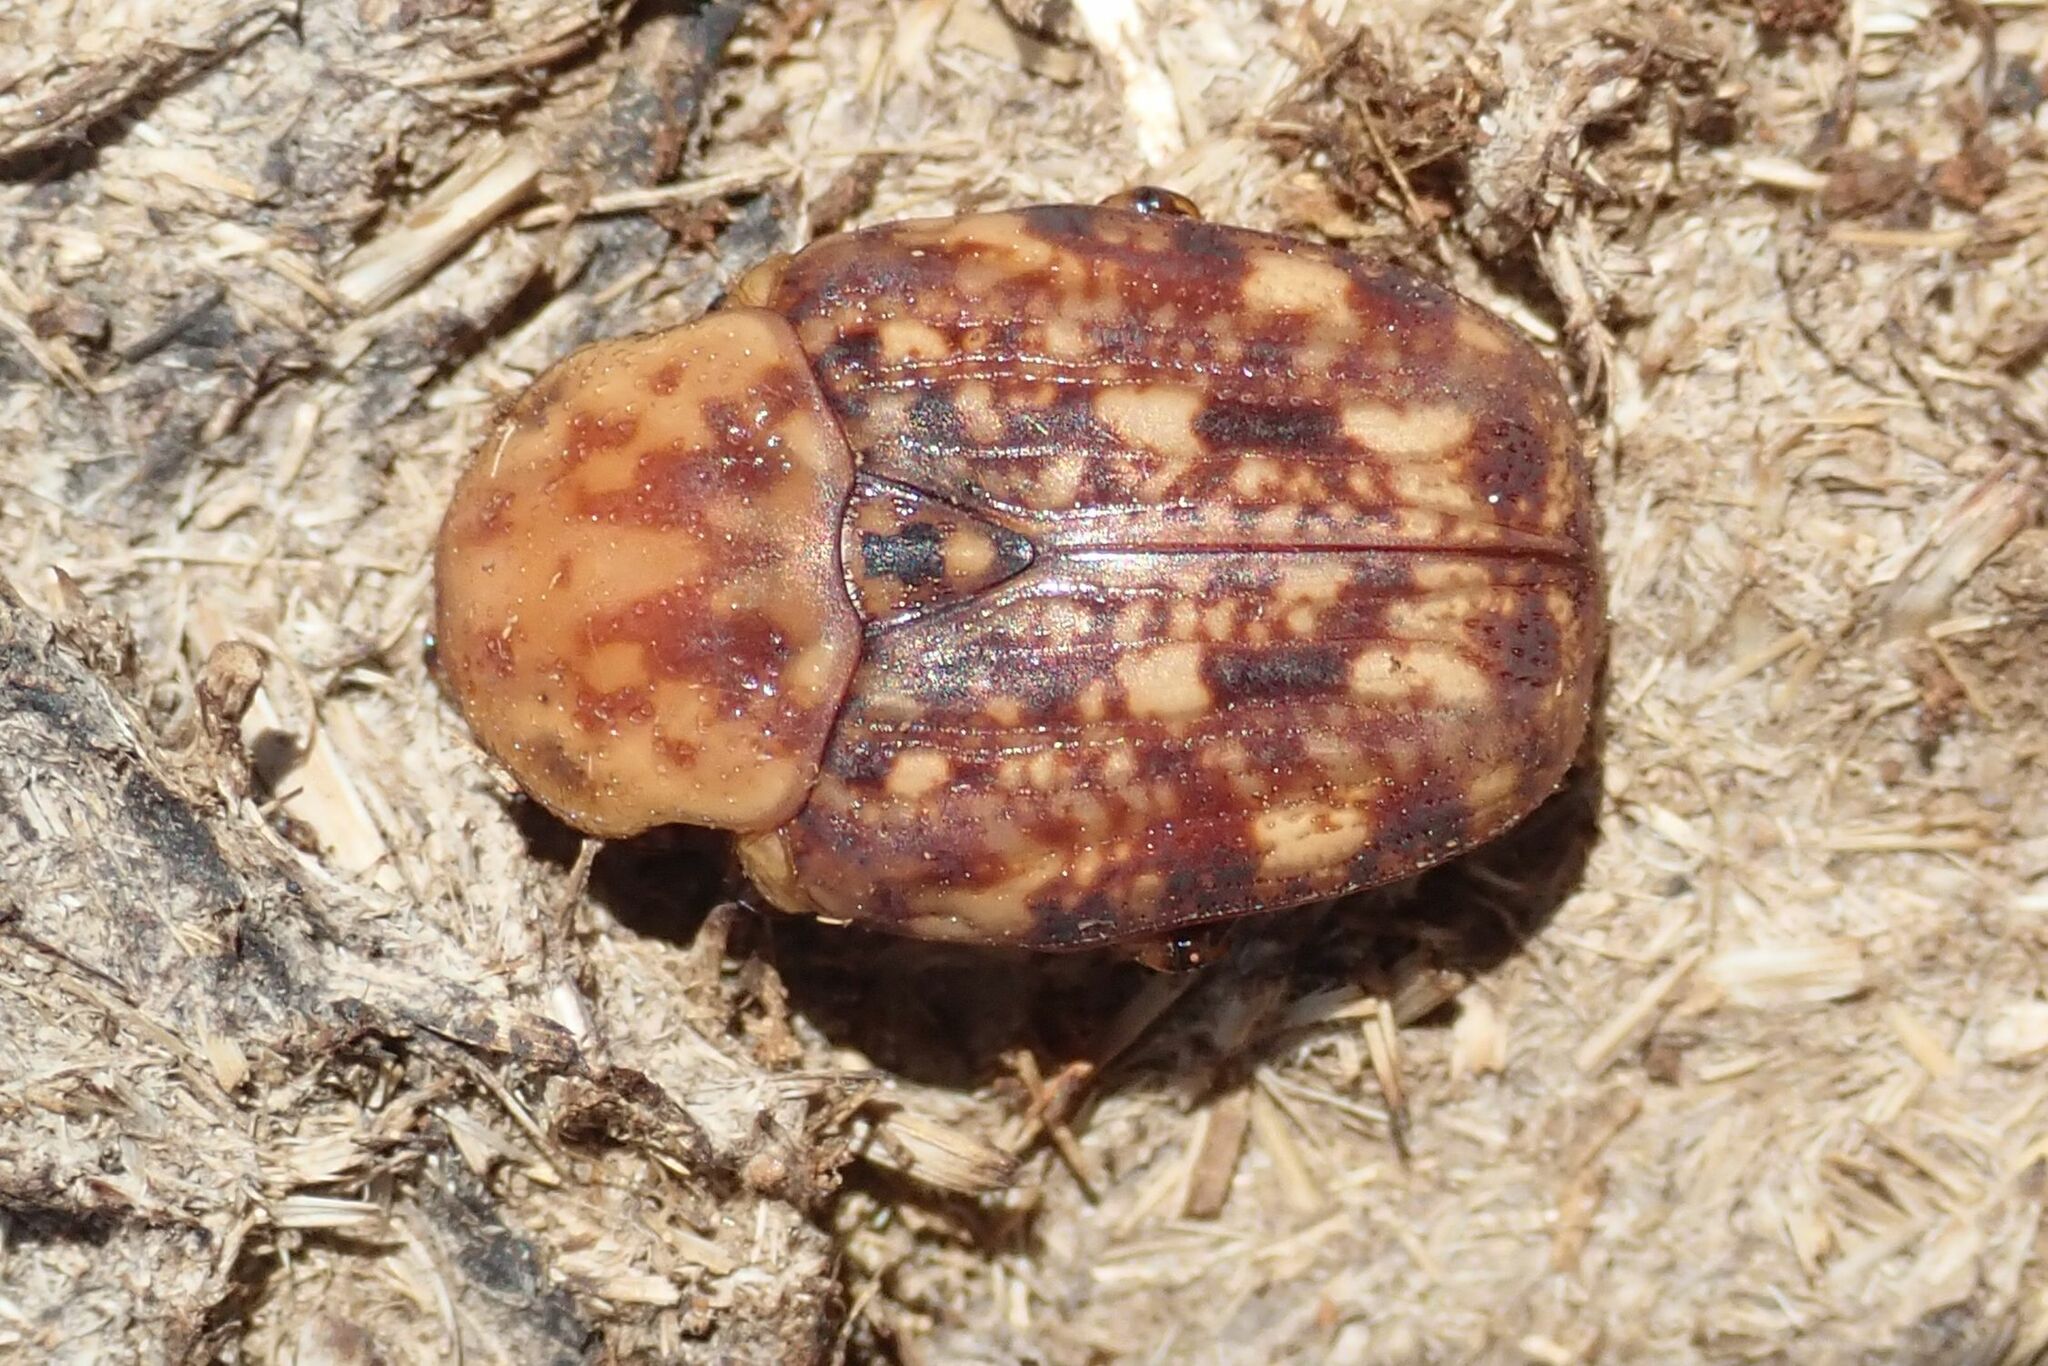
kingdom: Animalia
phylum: Arthropoda
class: Insecta
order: Coleoptera
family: Scarabaeidae
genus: Porphyronota
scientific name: Porphyronota hebraea
